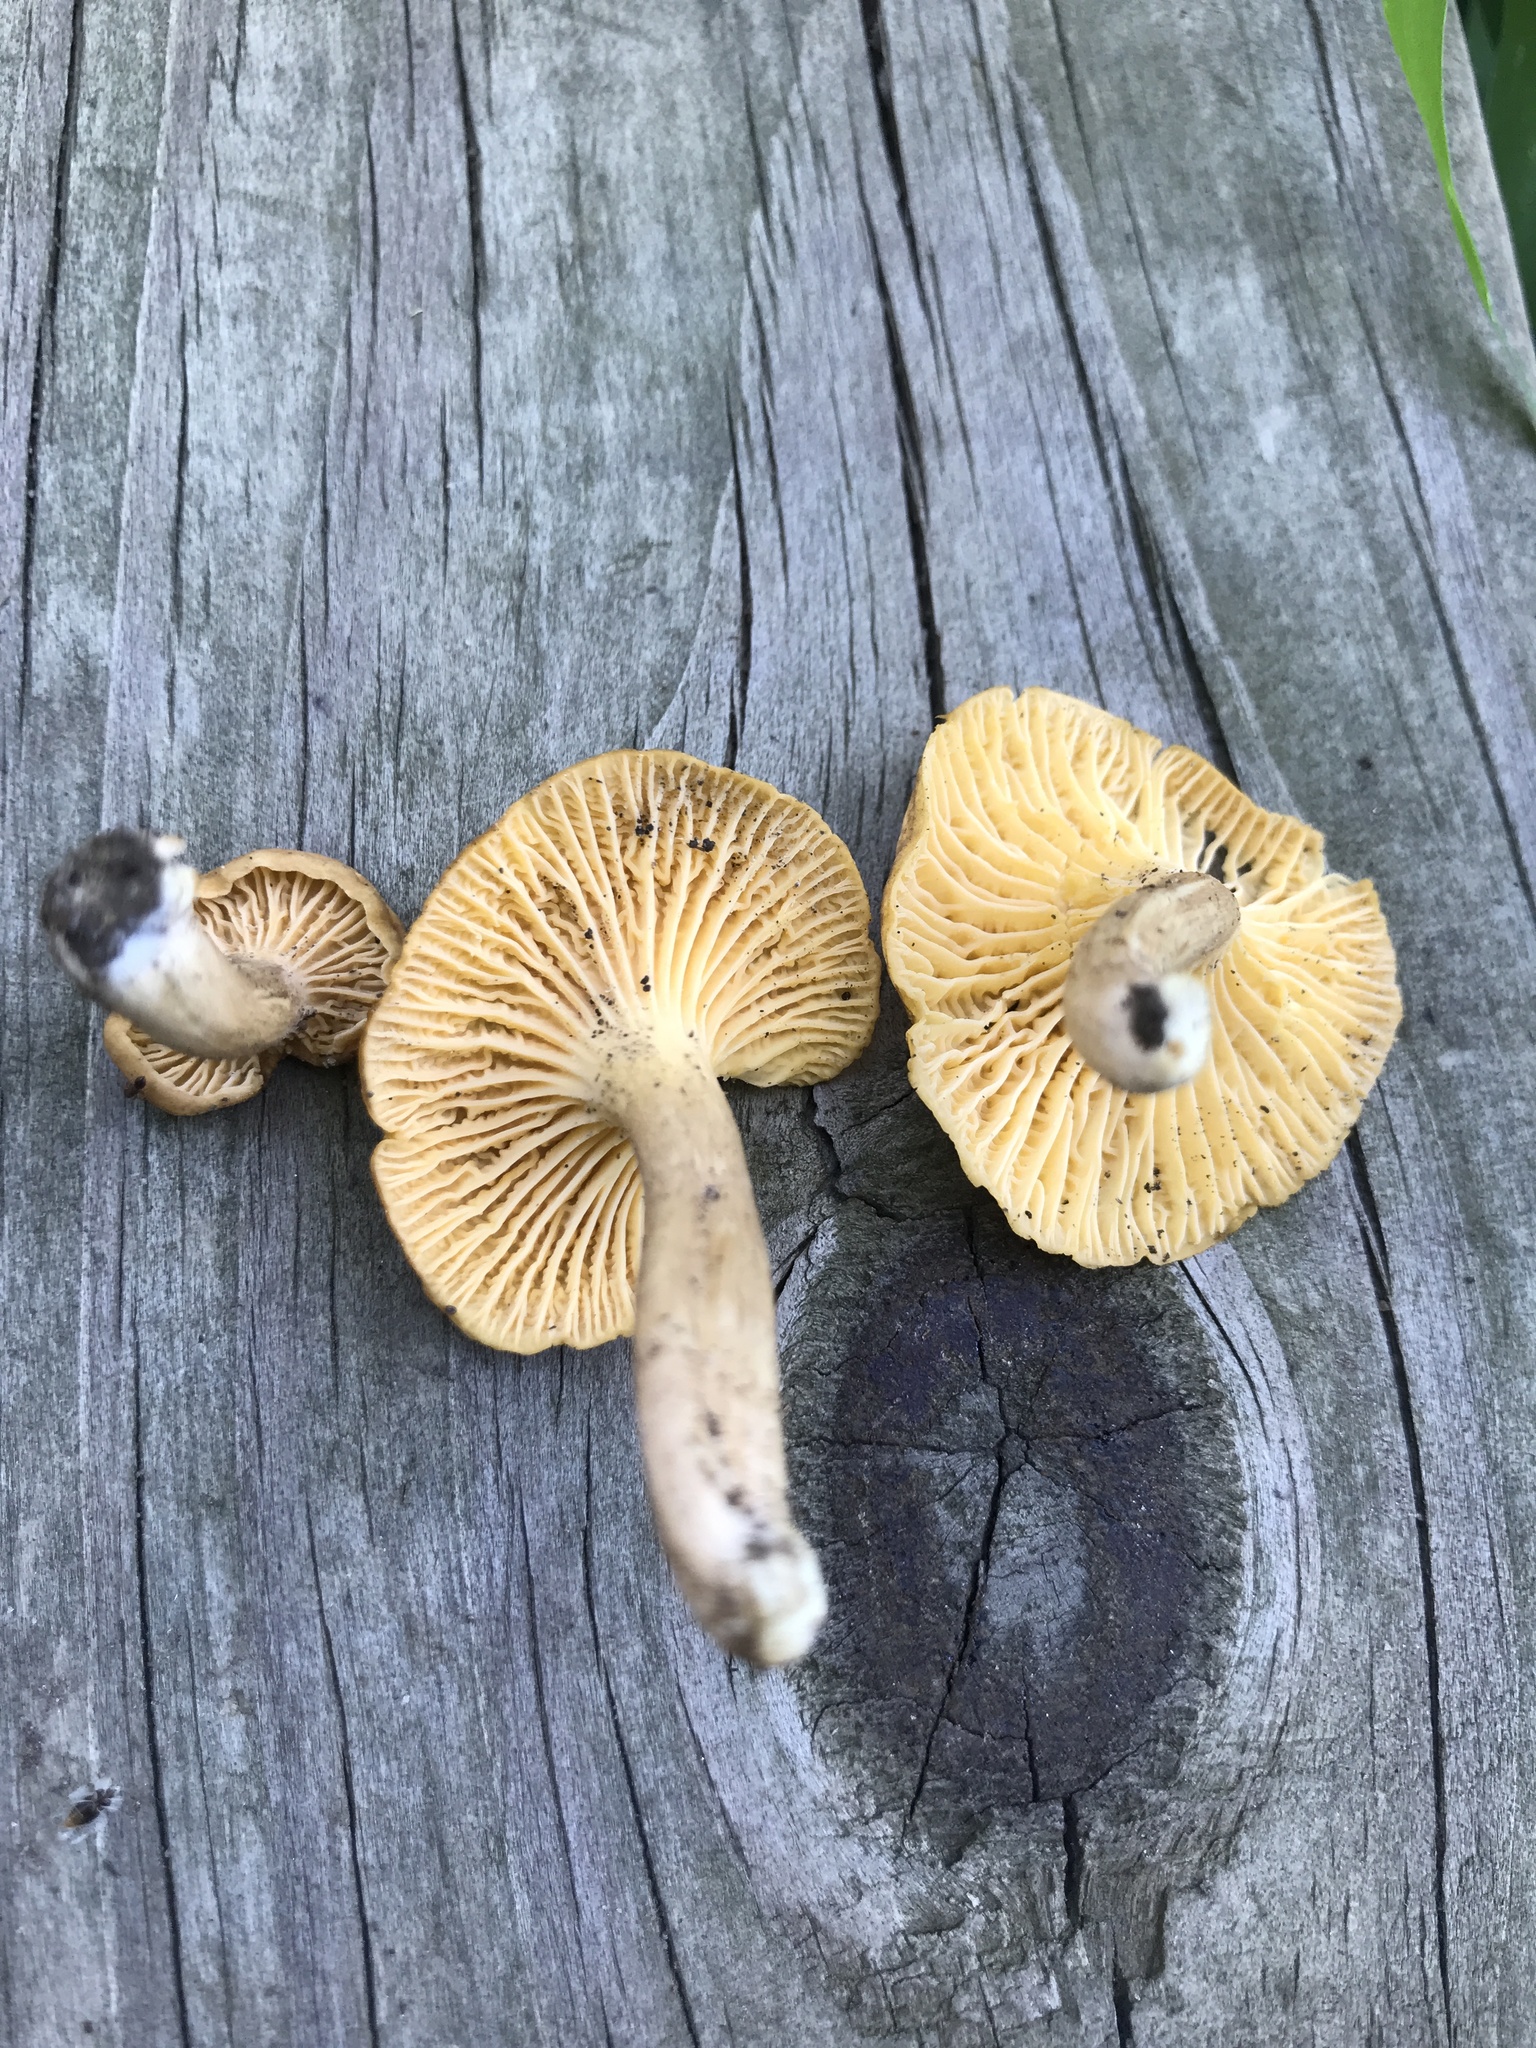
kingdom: Fungi
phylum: Basidiomycota
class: Agaricomycetes
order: Cantharellales
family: Hydnaceae
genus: Cantharellus
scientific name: Cantharellus appalachiensis
